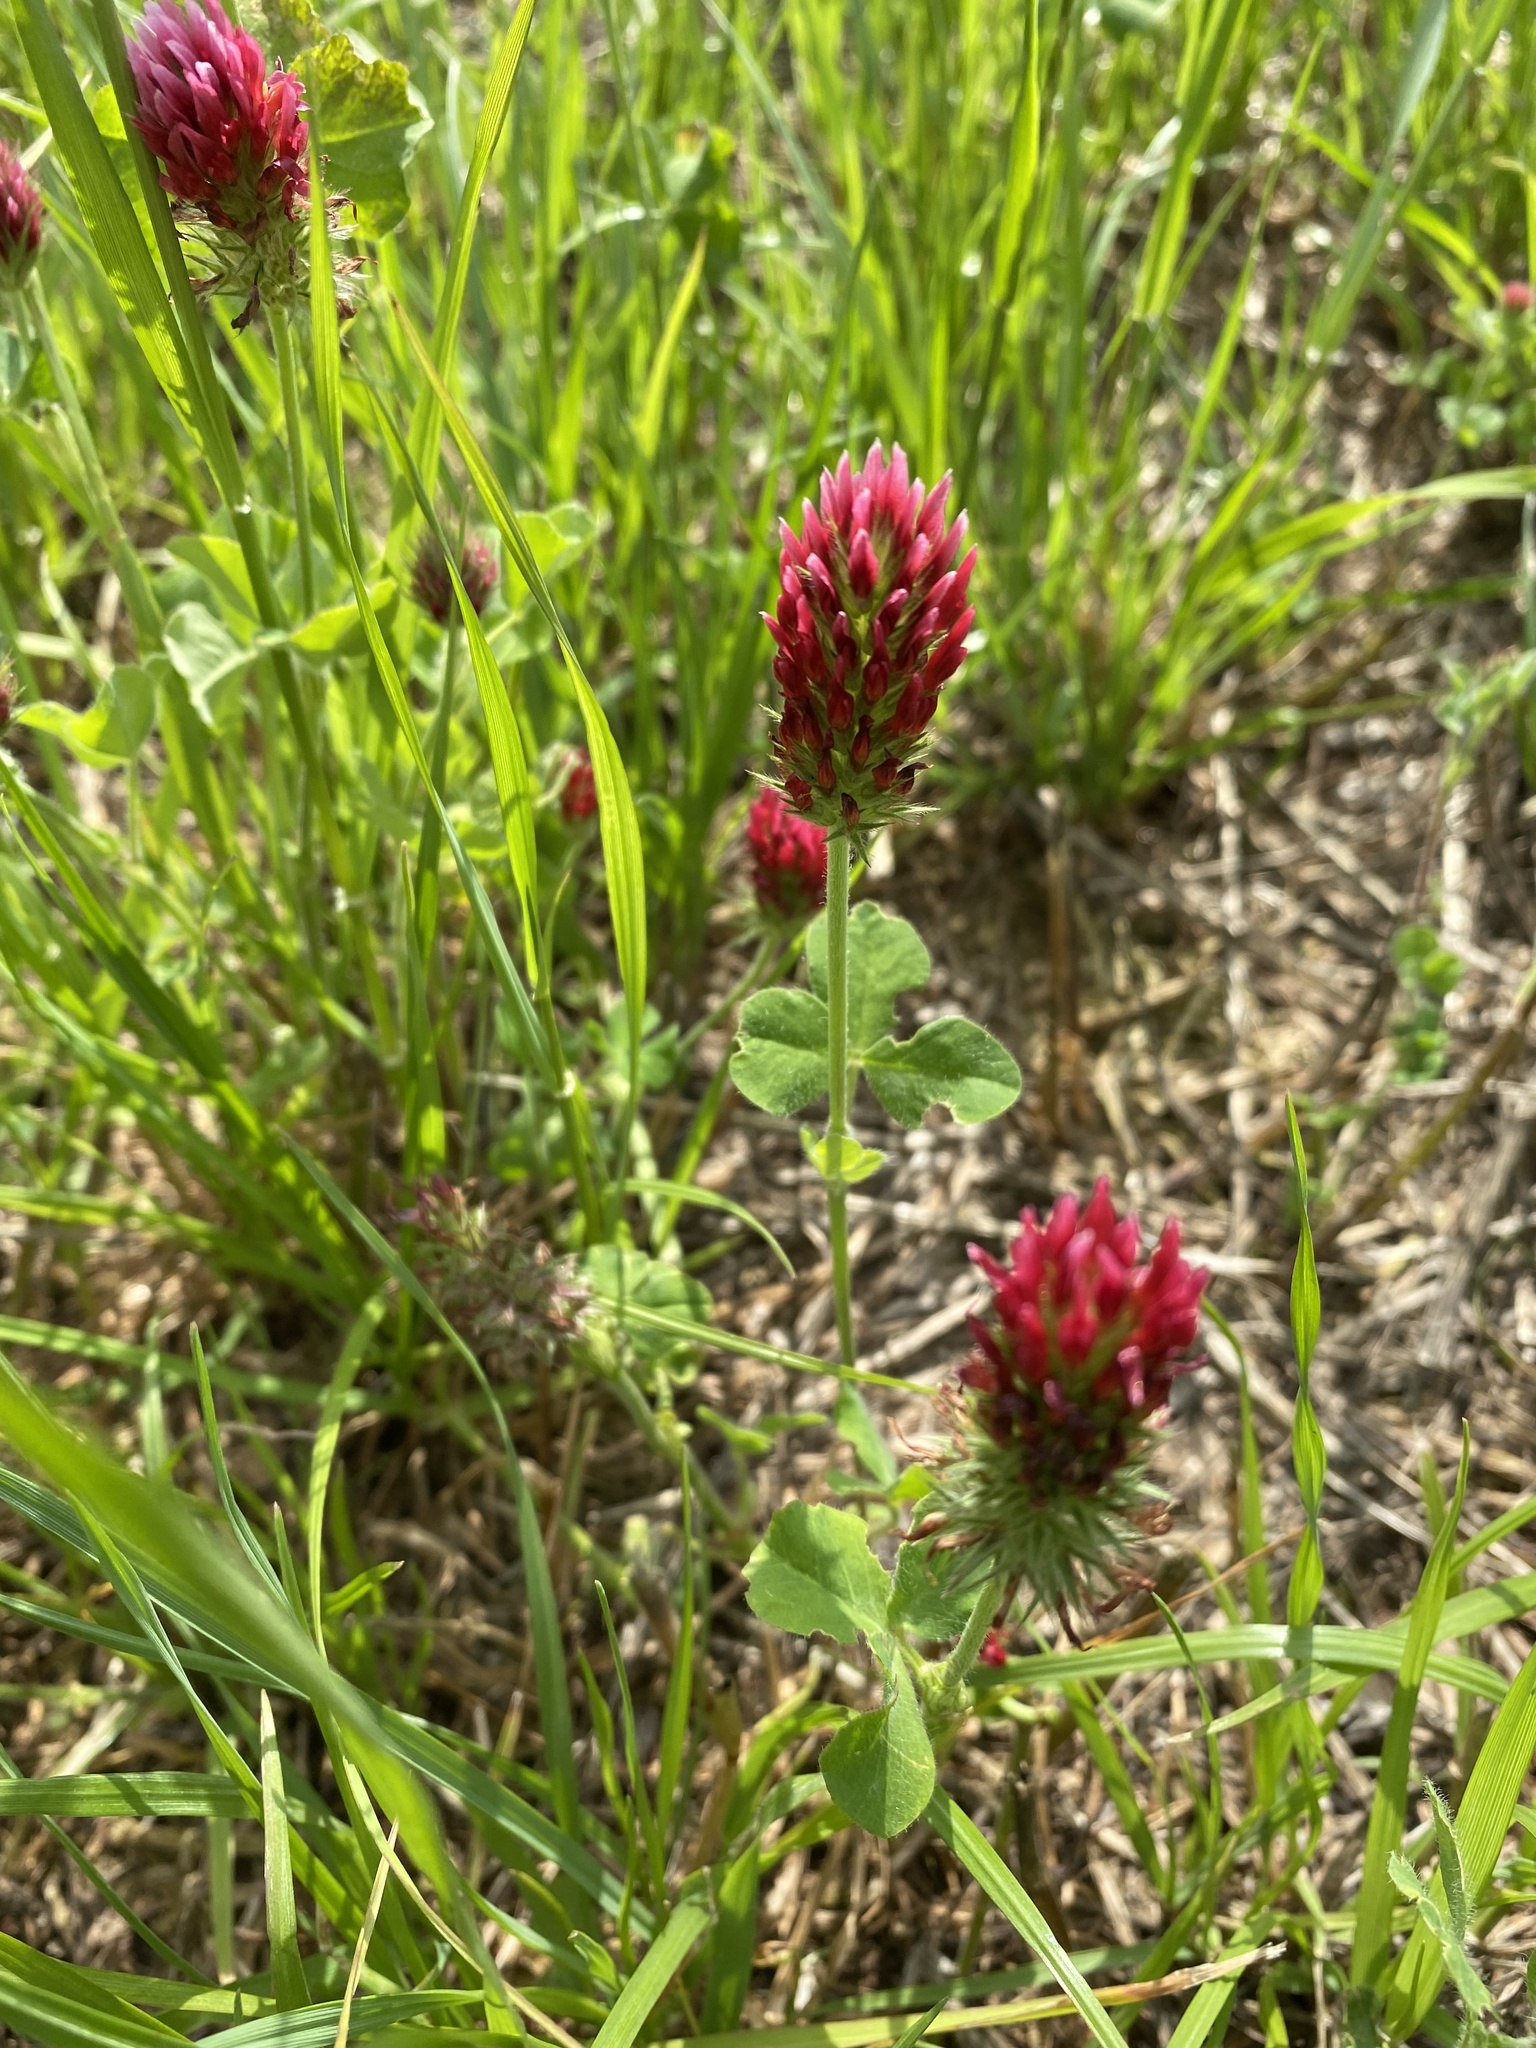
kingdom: Plantae
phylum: Tracheophyta
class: Magnoliopsida
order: Fabales
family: Fabaceae
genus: Trifolium
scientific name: Trifolium incarnatum
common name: Crimson clover
